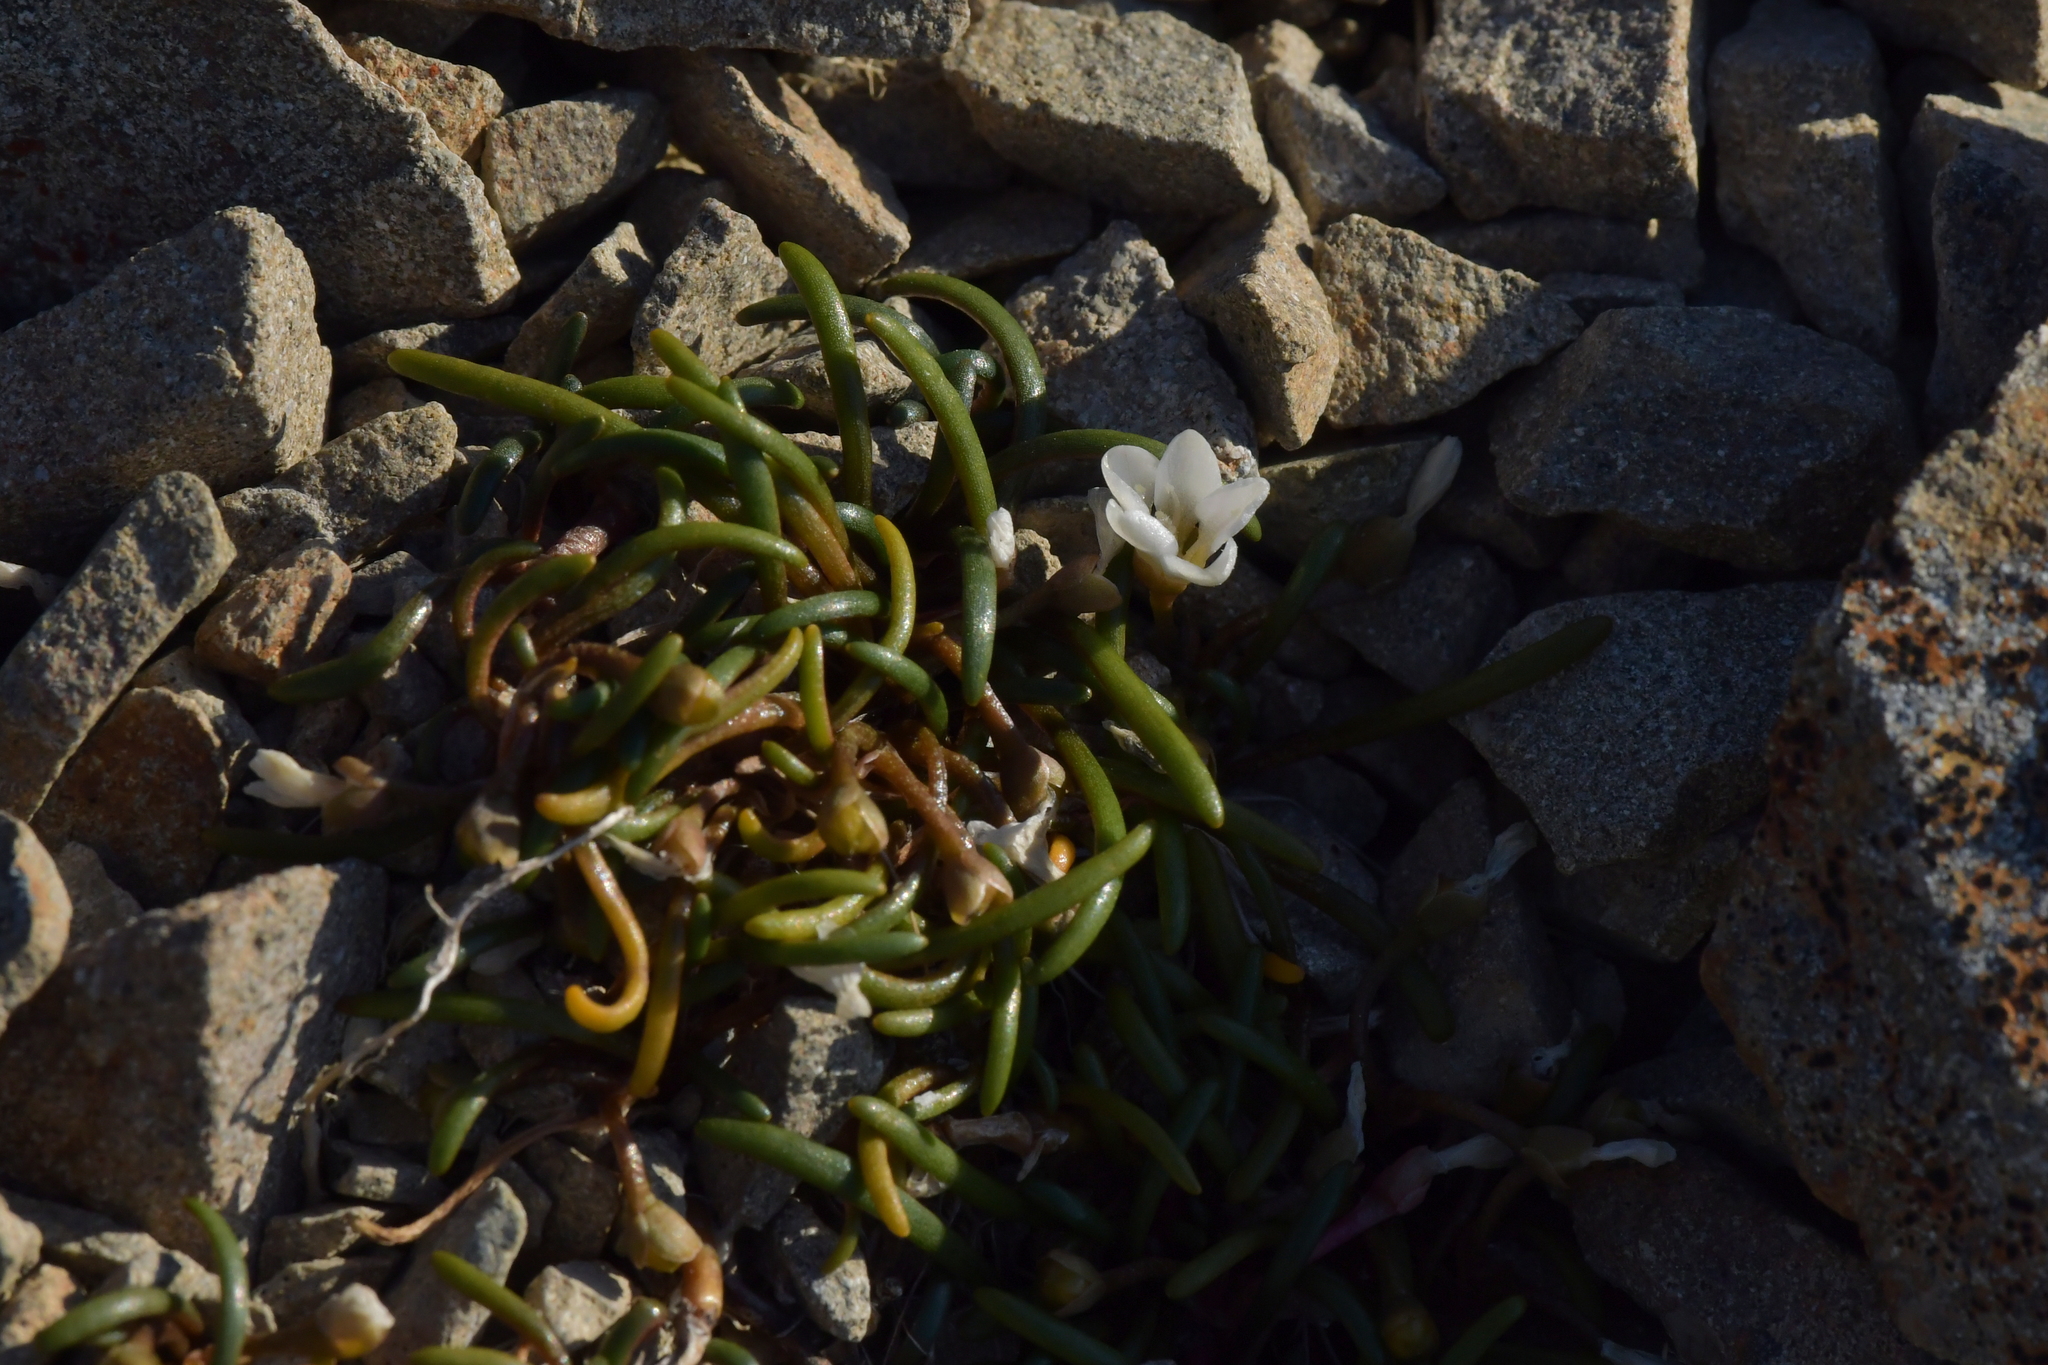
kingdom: Plantae
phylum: Tracheophyta
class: Magnoliopsida
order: Caryophyllales
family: Montiaceae
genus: Montia
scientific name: Montia calycina
